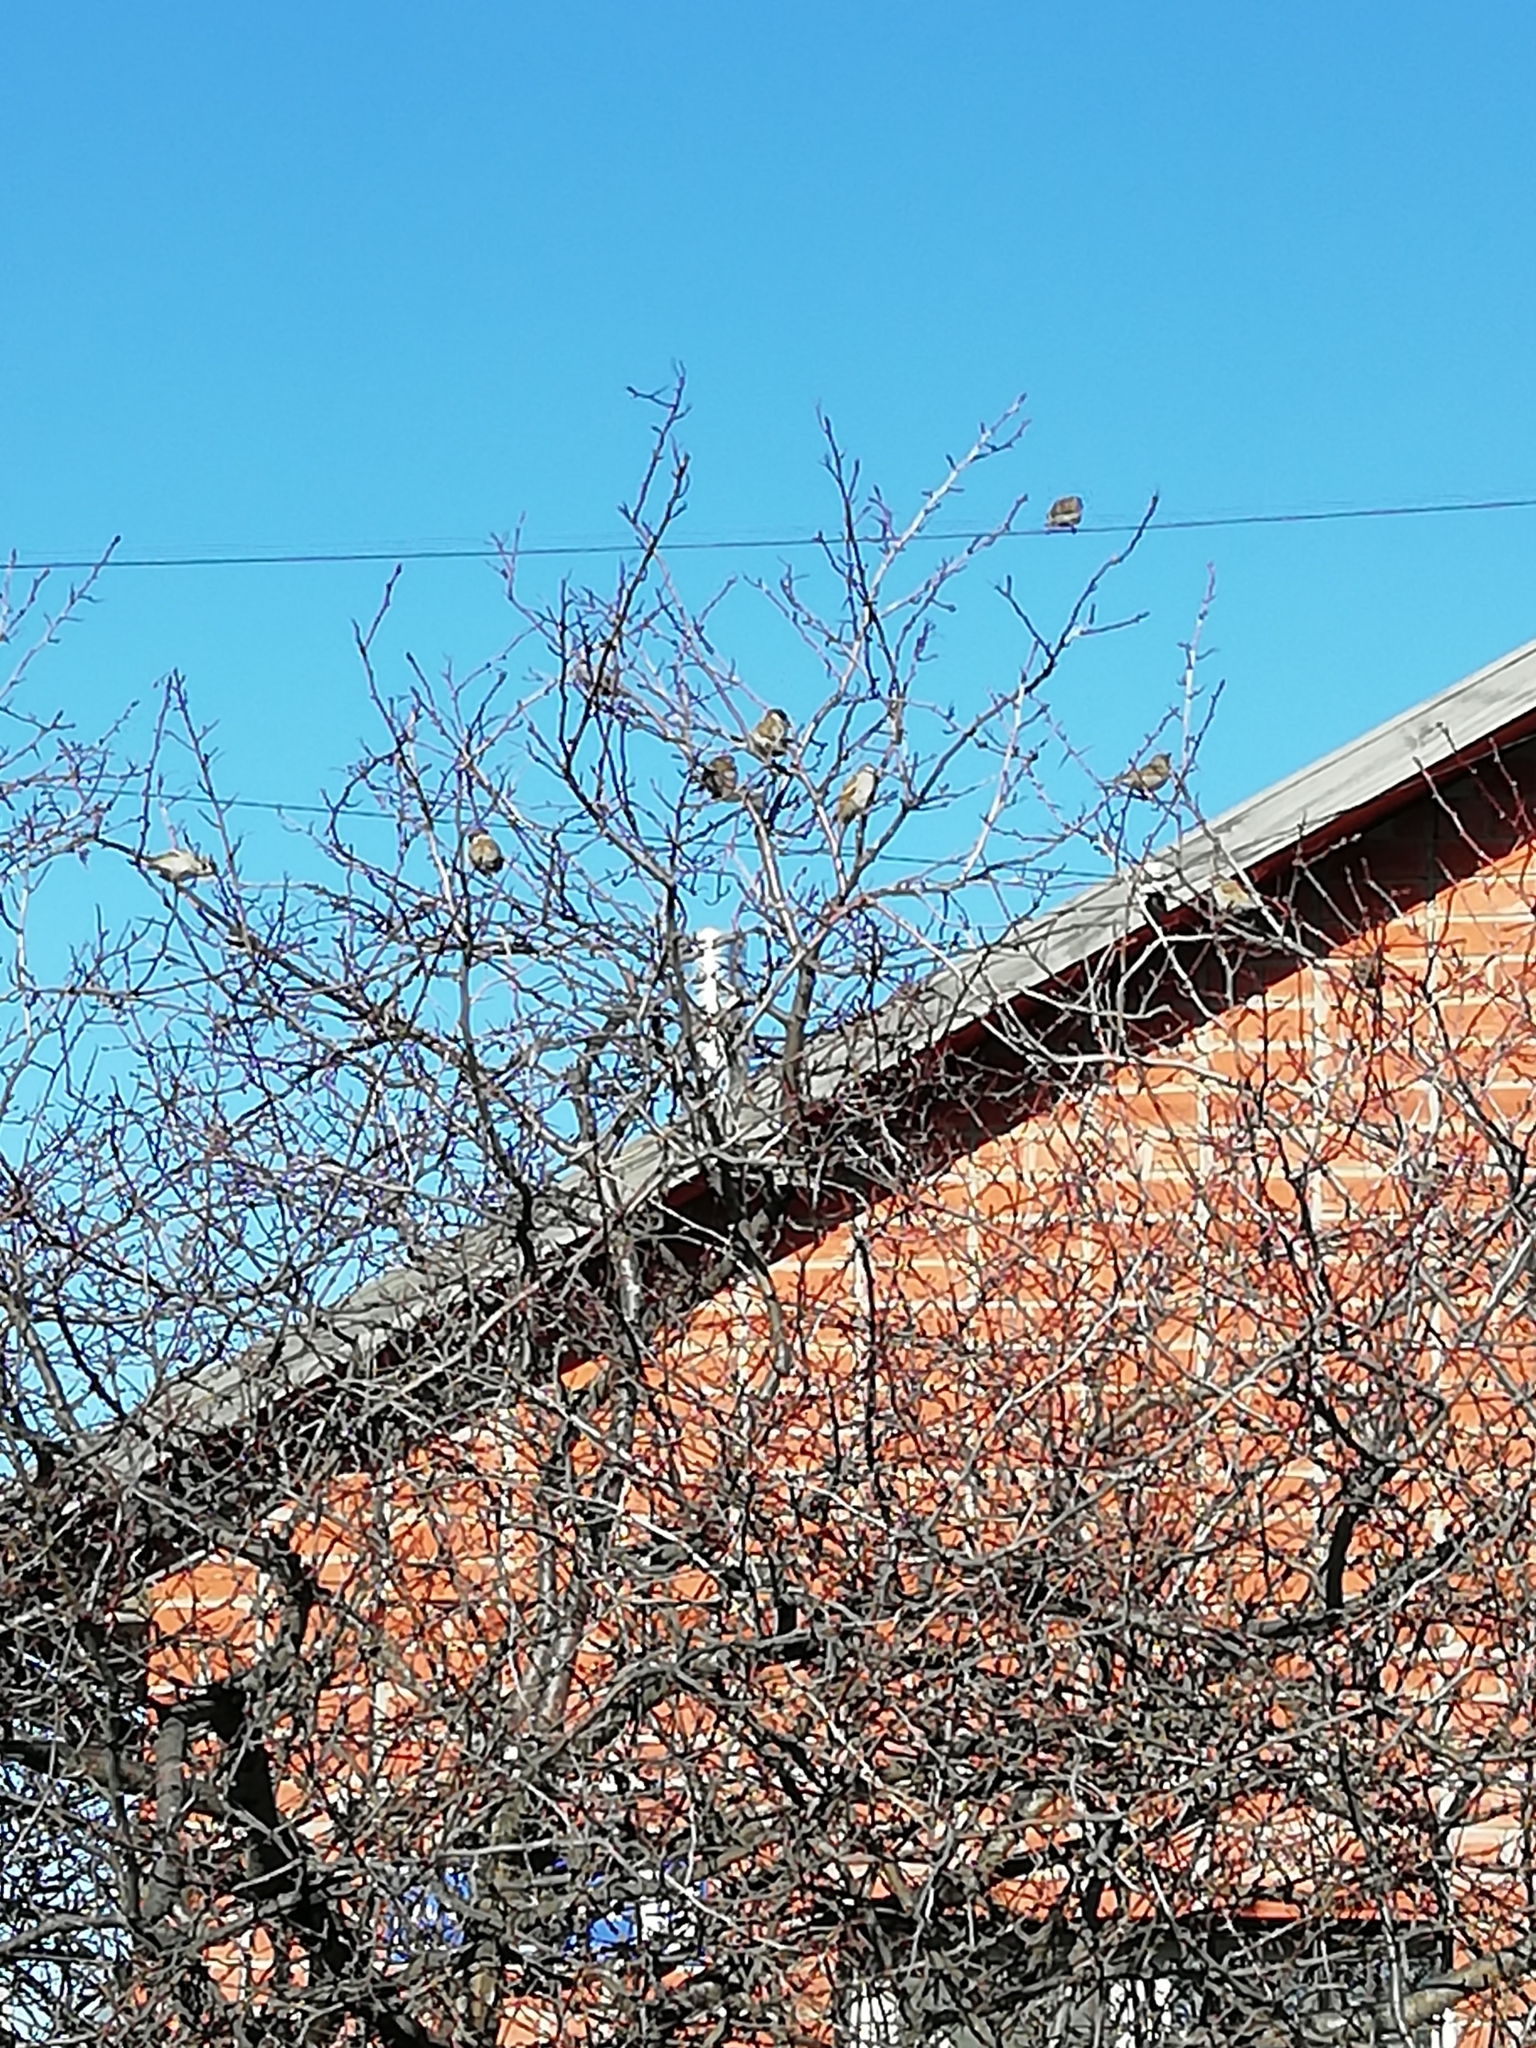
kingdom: Animalia
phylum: Chordata
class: Aves
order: Passeriformes
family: Passeridae
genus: Passer
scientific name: Passer montanus
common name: Eurasian tree sparrow
